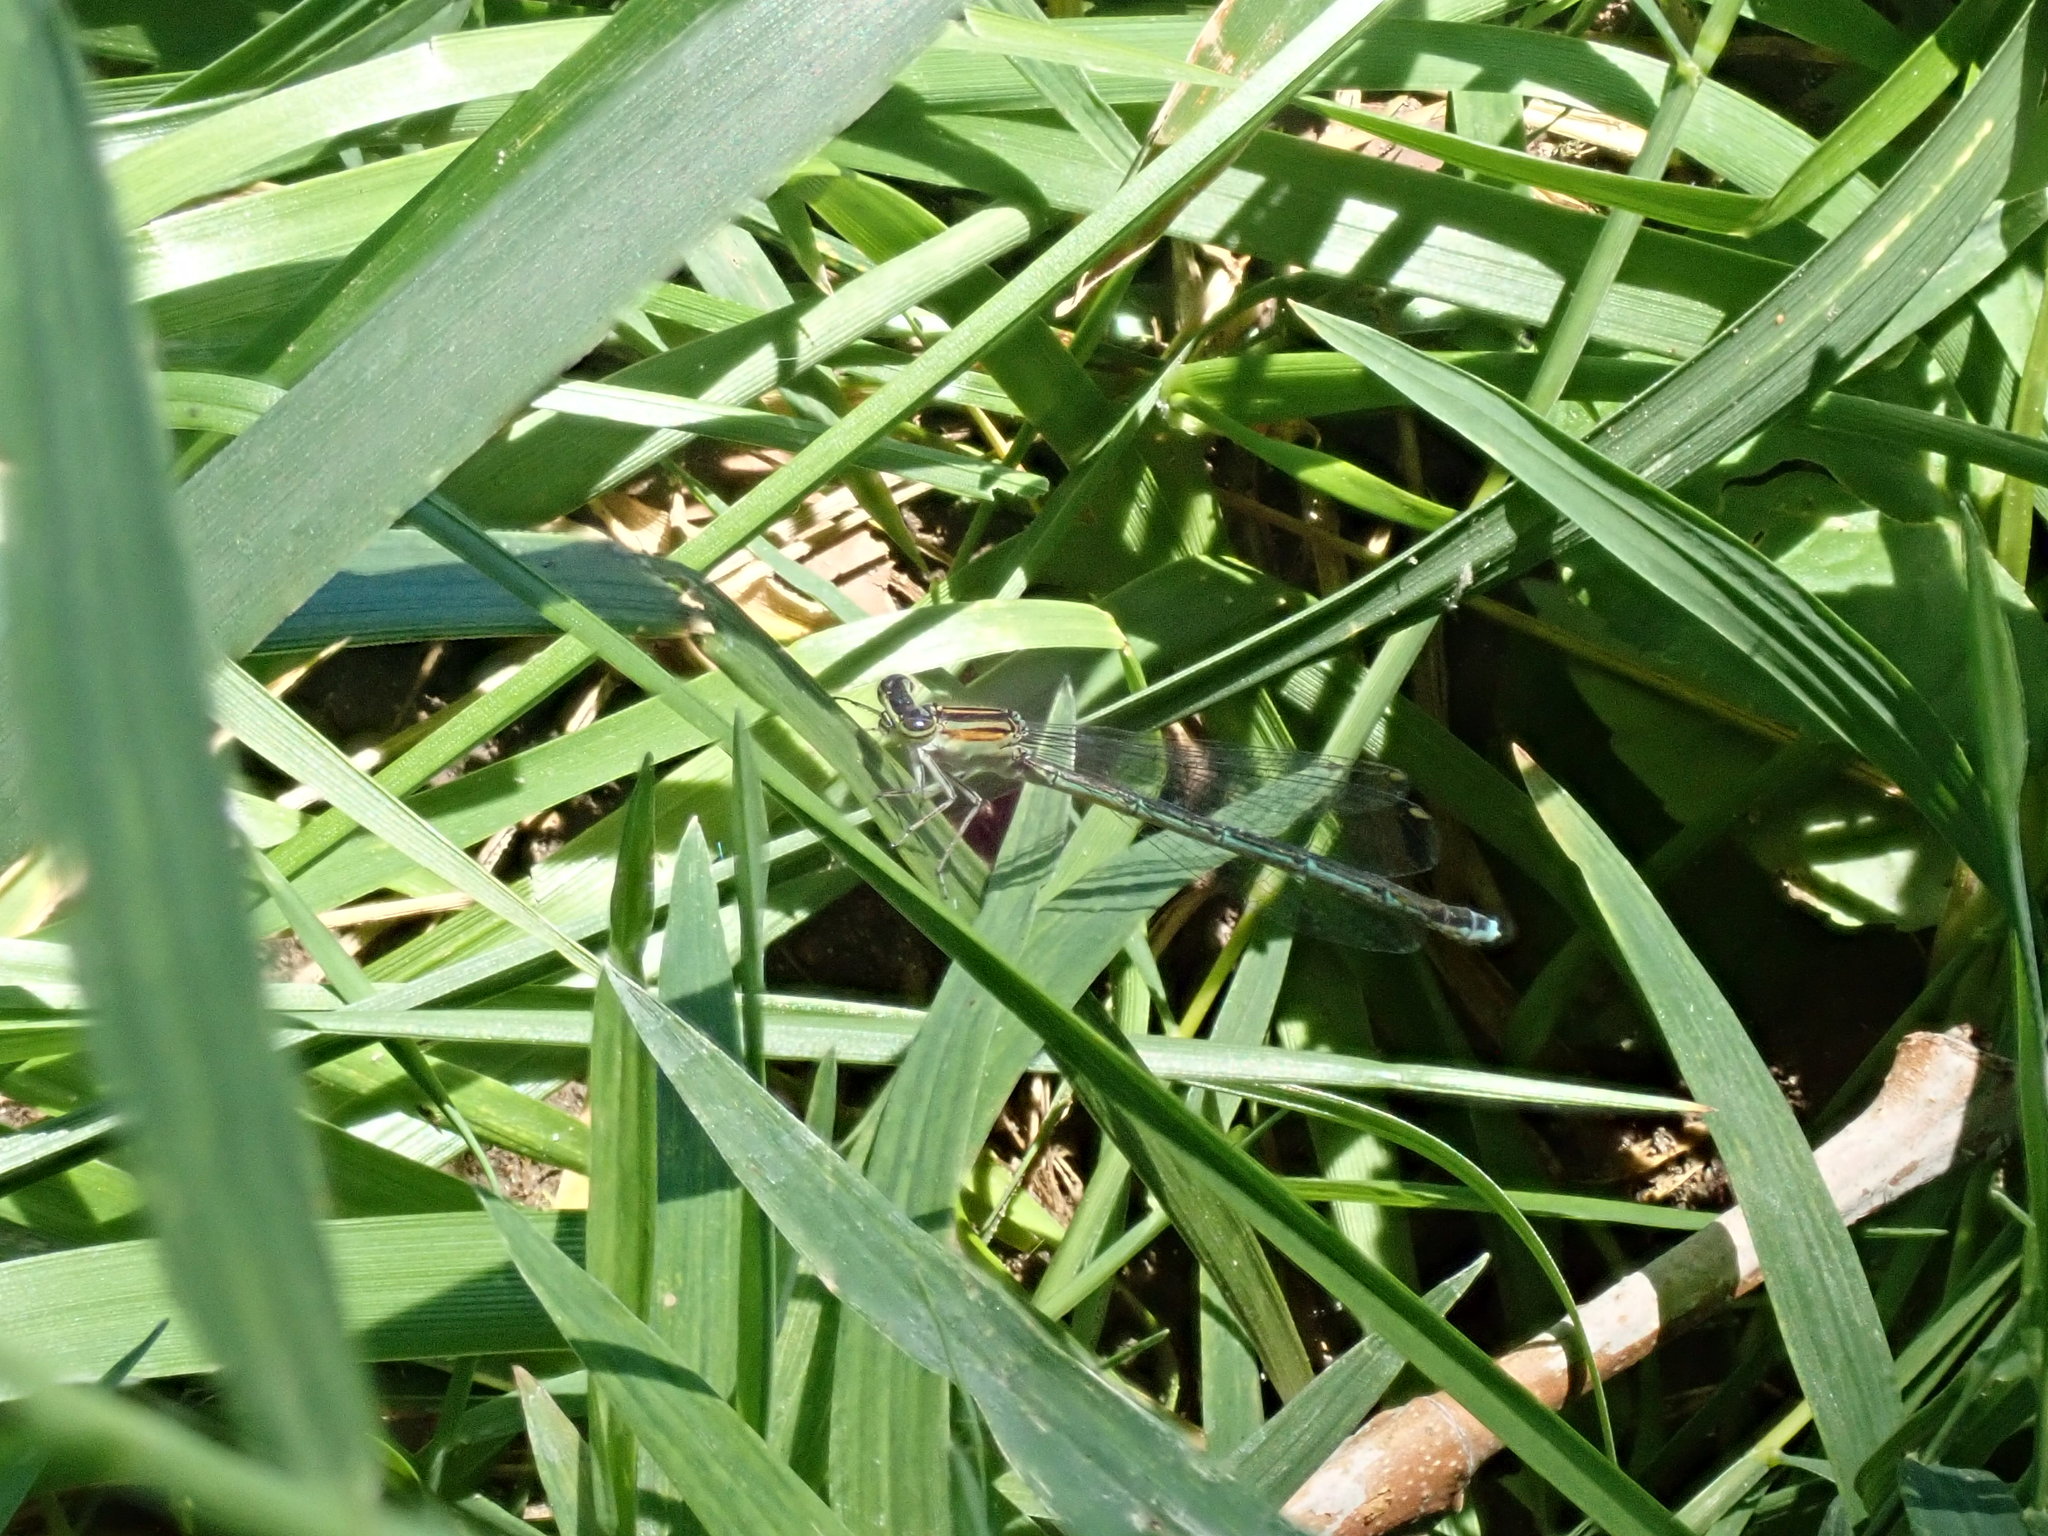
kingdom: Animalia
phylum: Arthropoda
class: Insecta
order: Odonata
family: Coenagrionidae
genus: Enallagma
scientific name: Enallagma exsulans
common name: Stream bluet
